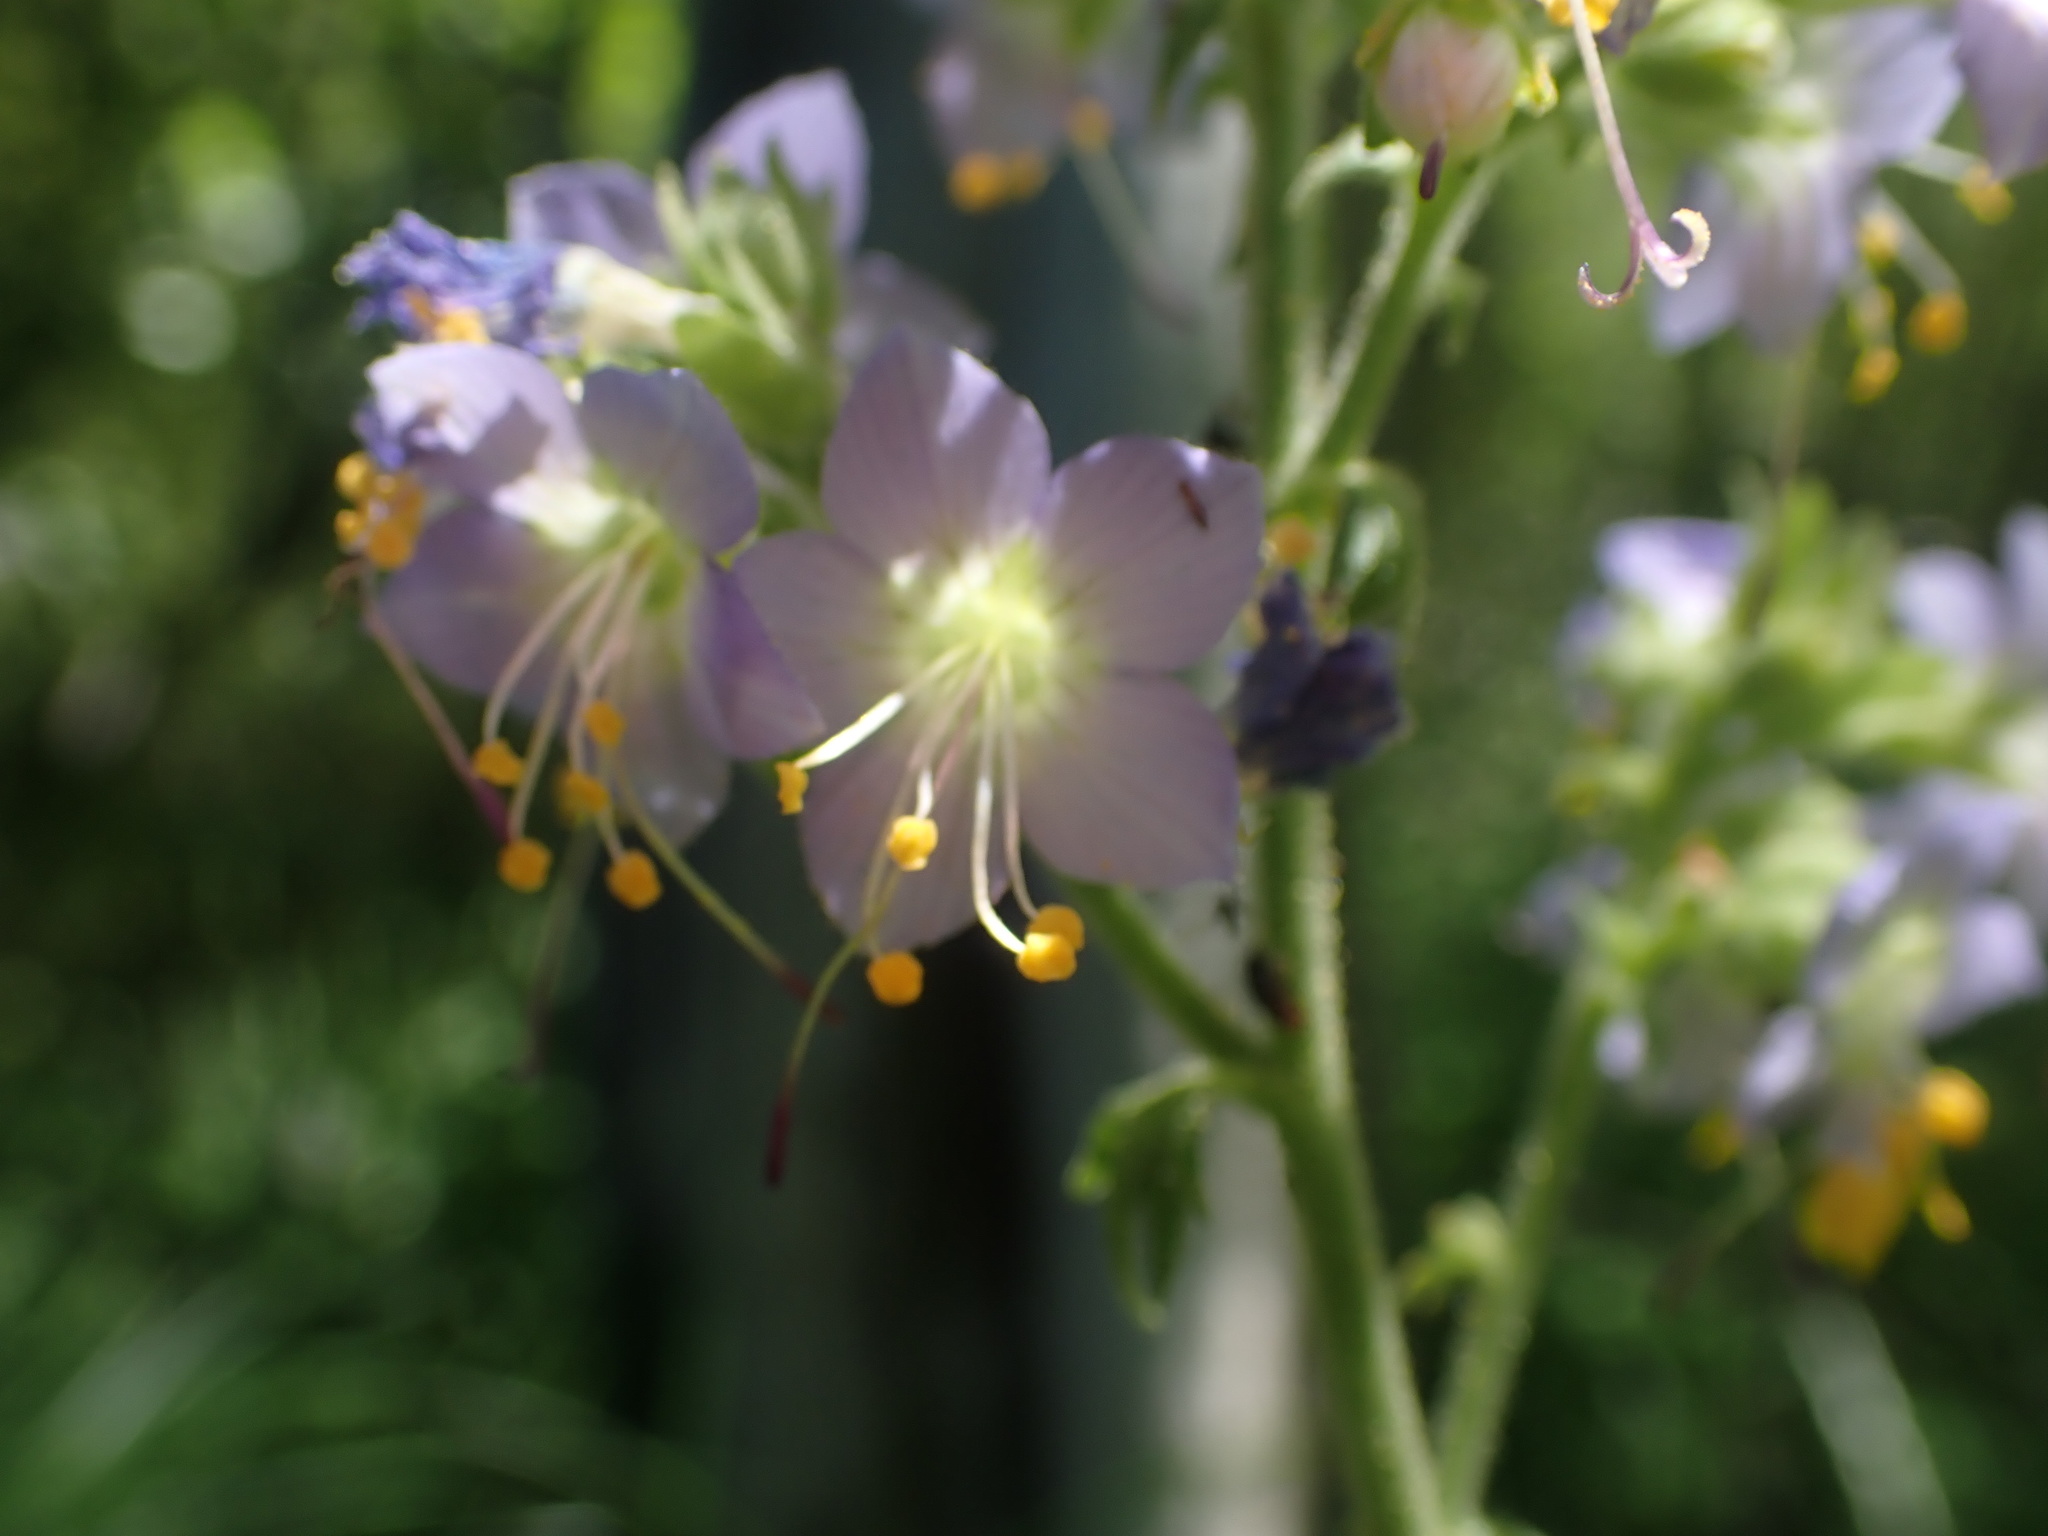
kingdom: Plantae
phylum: Tracheophyta
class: Magnoliopsida
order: Ericales
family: Polemoniaceae
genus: Polemonium
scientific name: Polemonium occidentale
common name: Western jacob's-ladder
